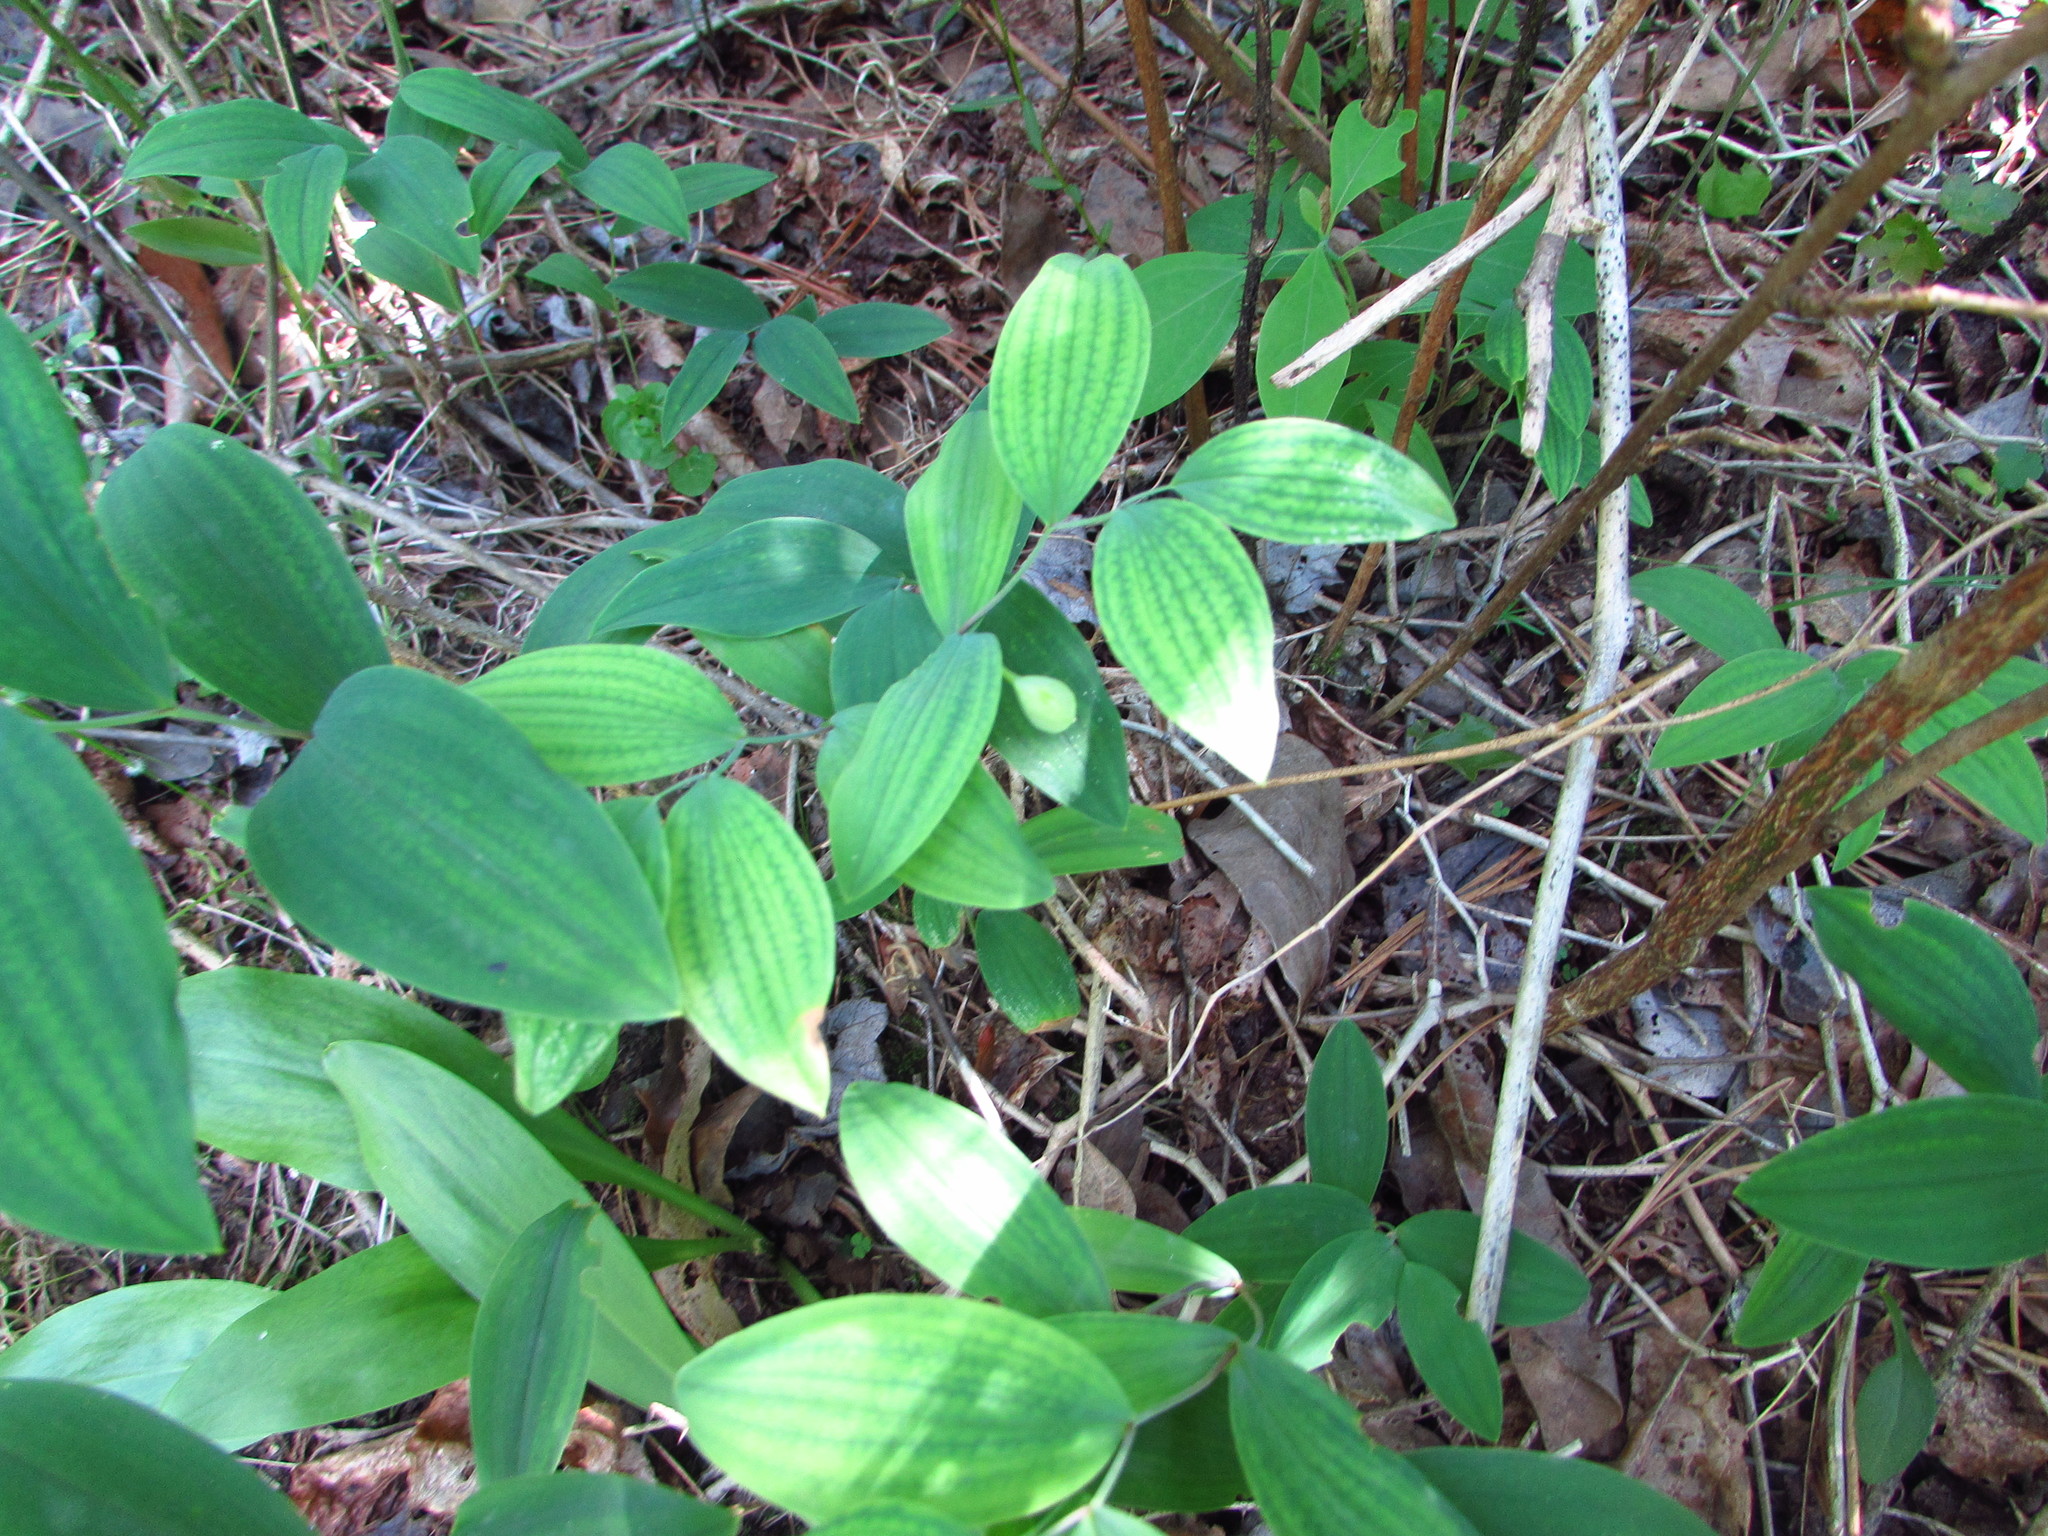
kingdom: Plantae
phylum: Tracheophyta
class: Liliopsida
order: Liliales
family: Colchicaceae
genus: Uvularia
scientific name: Uvularia sessilifolia
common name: Straw-lily
